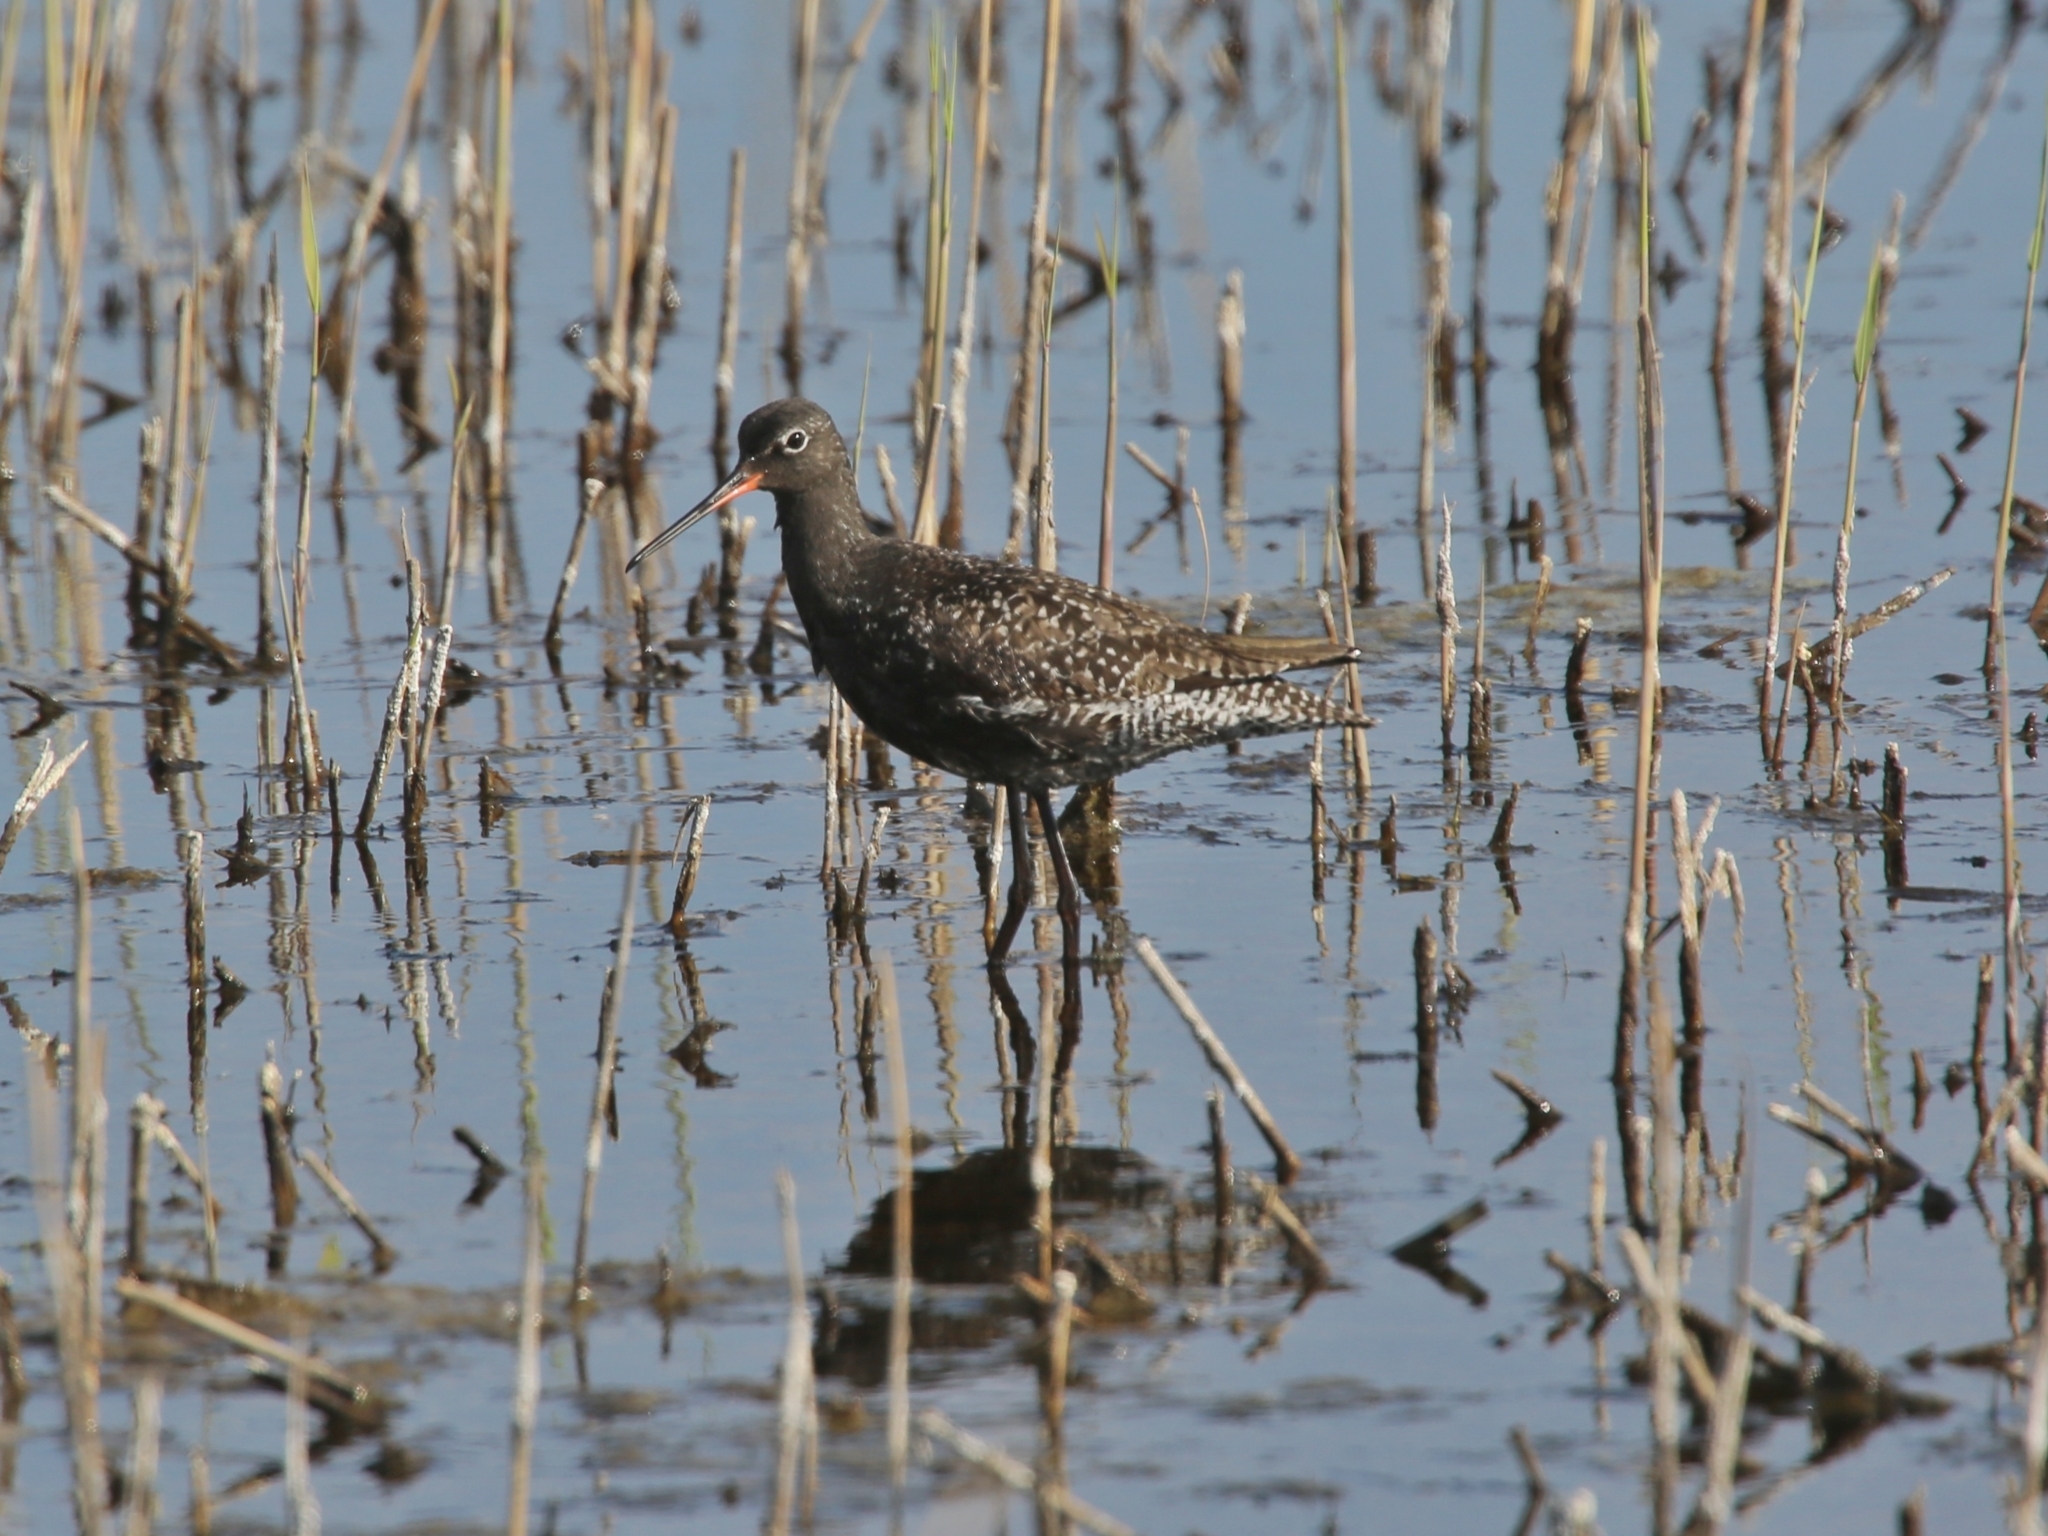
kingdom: Animalia
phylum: Chordata
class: Aves
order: Charadriiformes
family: Scolopacidae
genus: Tringa
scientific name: Tringa erythropus
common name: Spotted redshank
